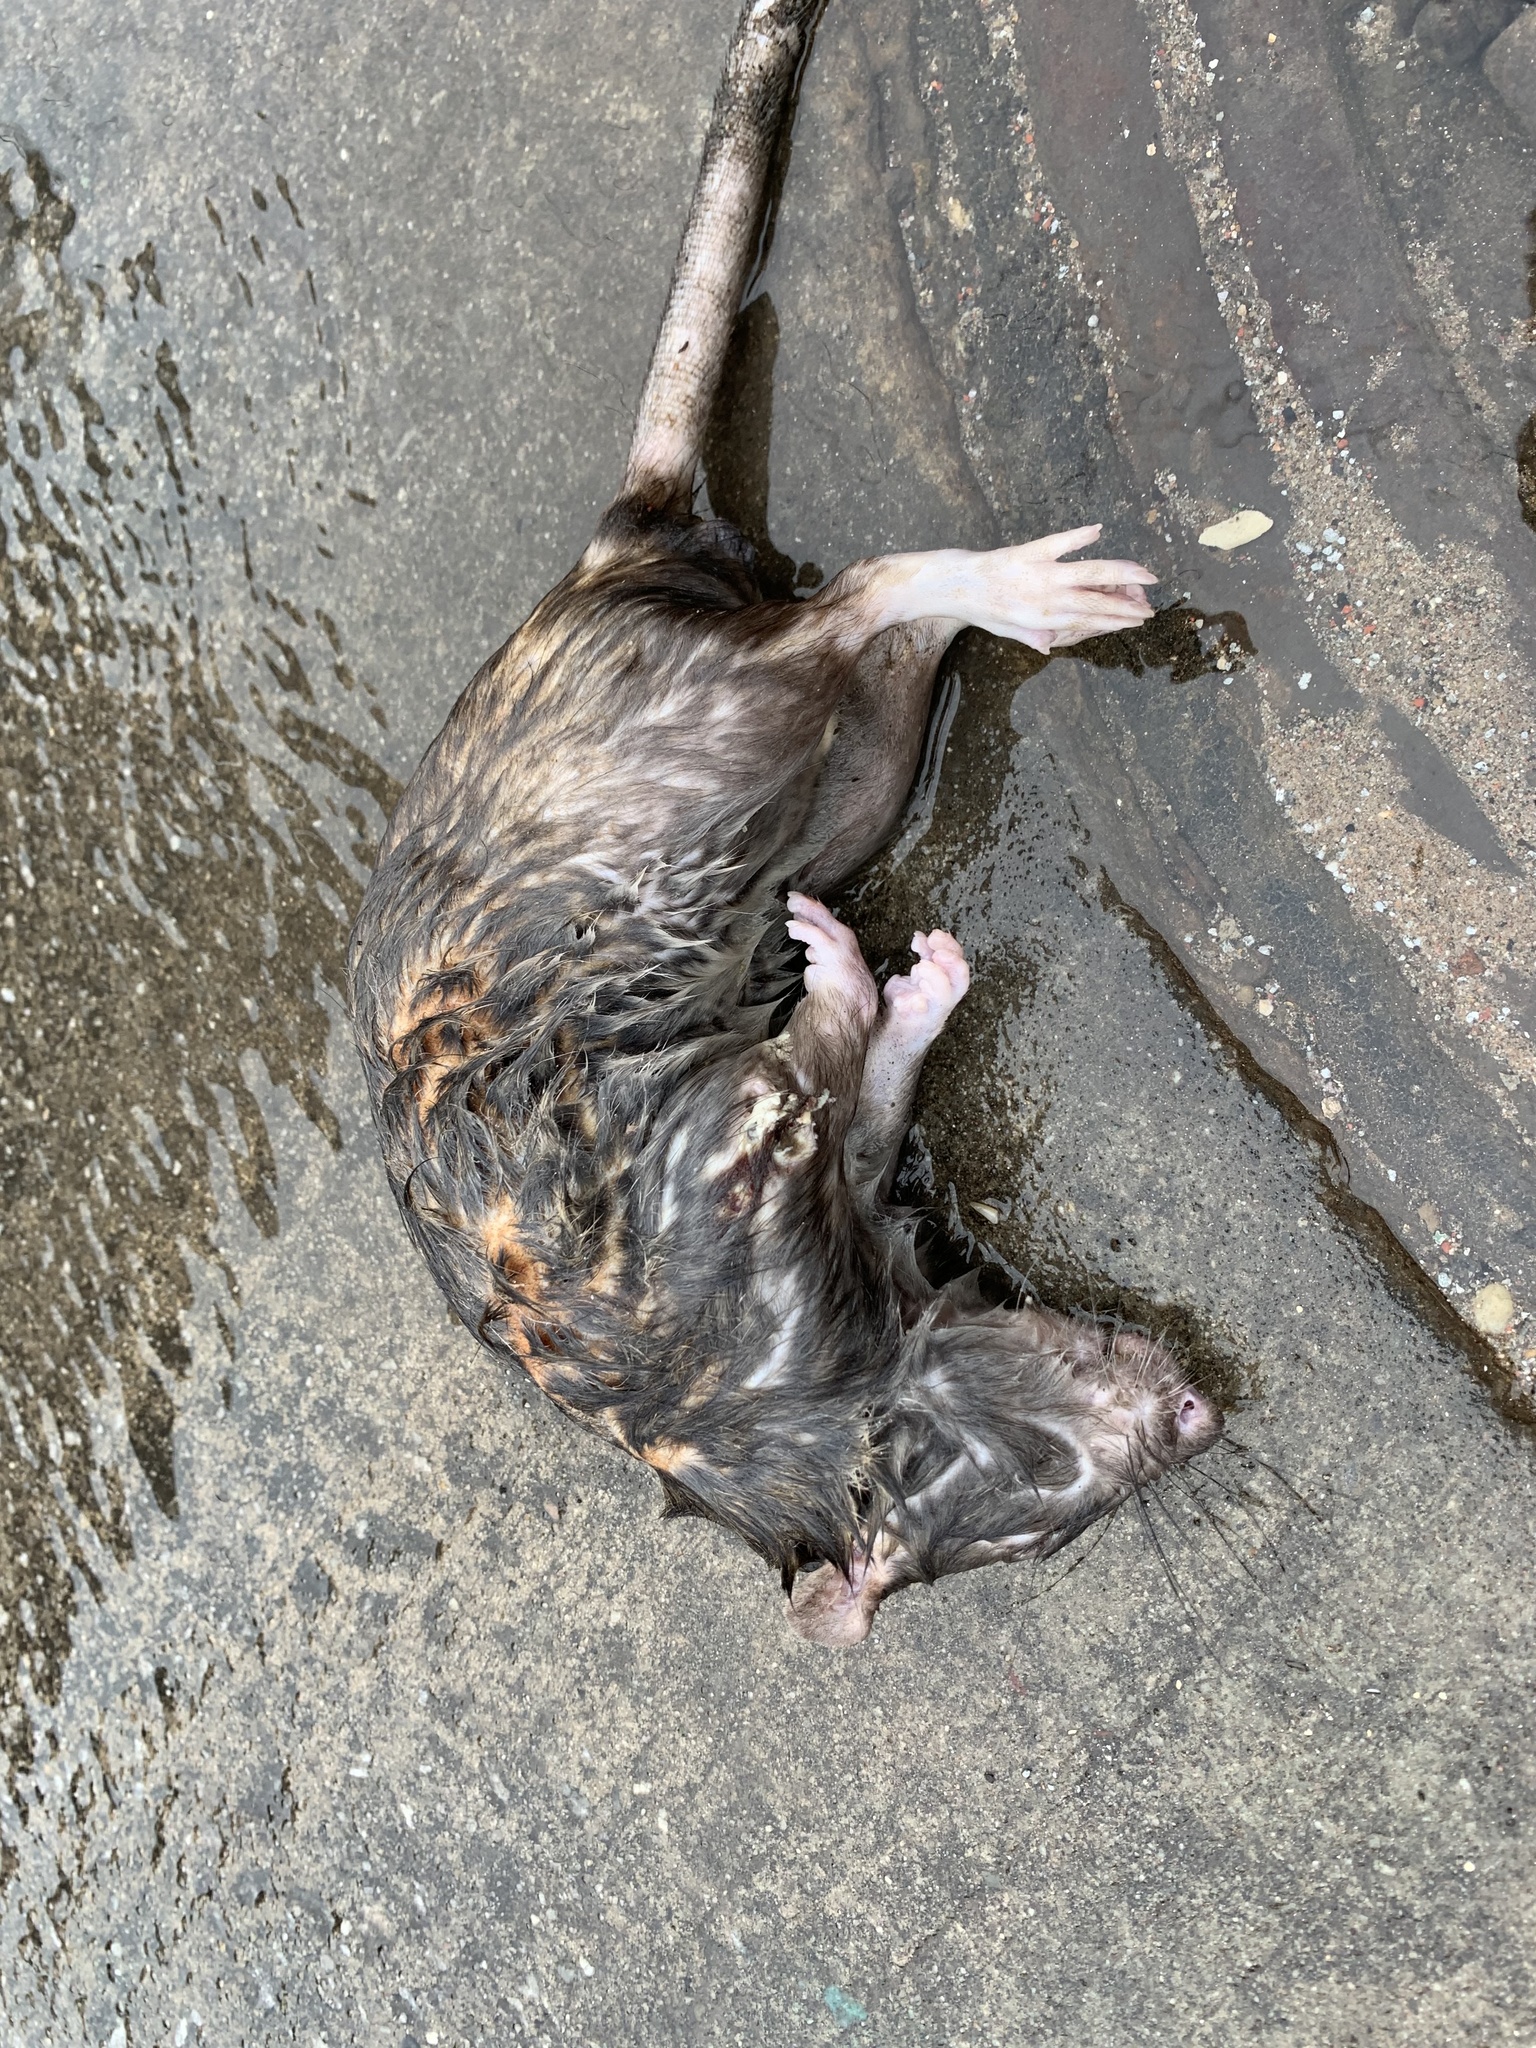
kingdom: Animalia
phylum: Chordata
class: Mammalia
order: Rodentia
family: Muridae
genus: Rattus
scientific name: Rattus norvegicus
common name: Brown rat
